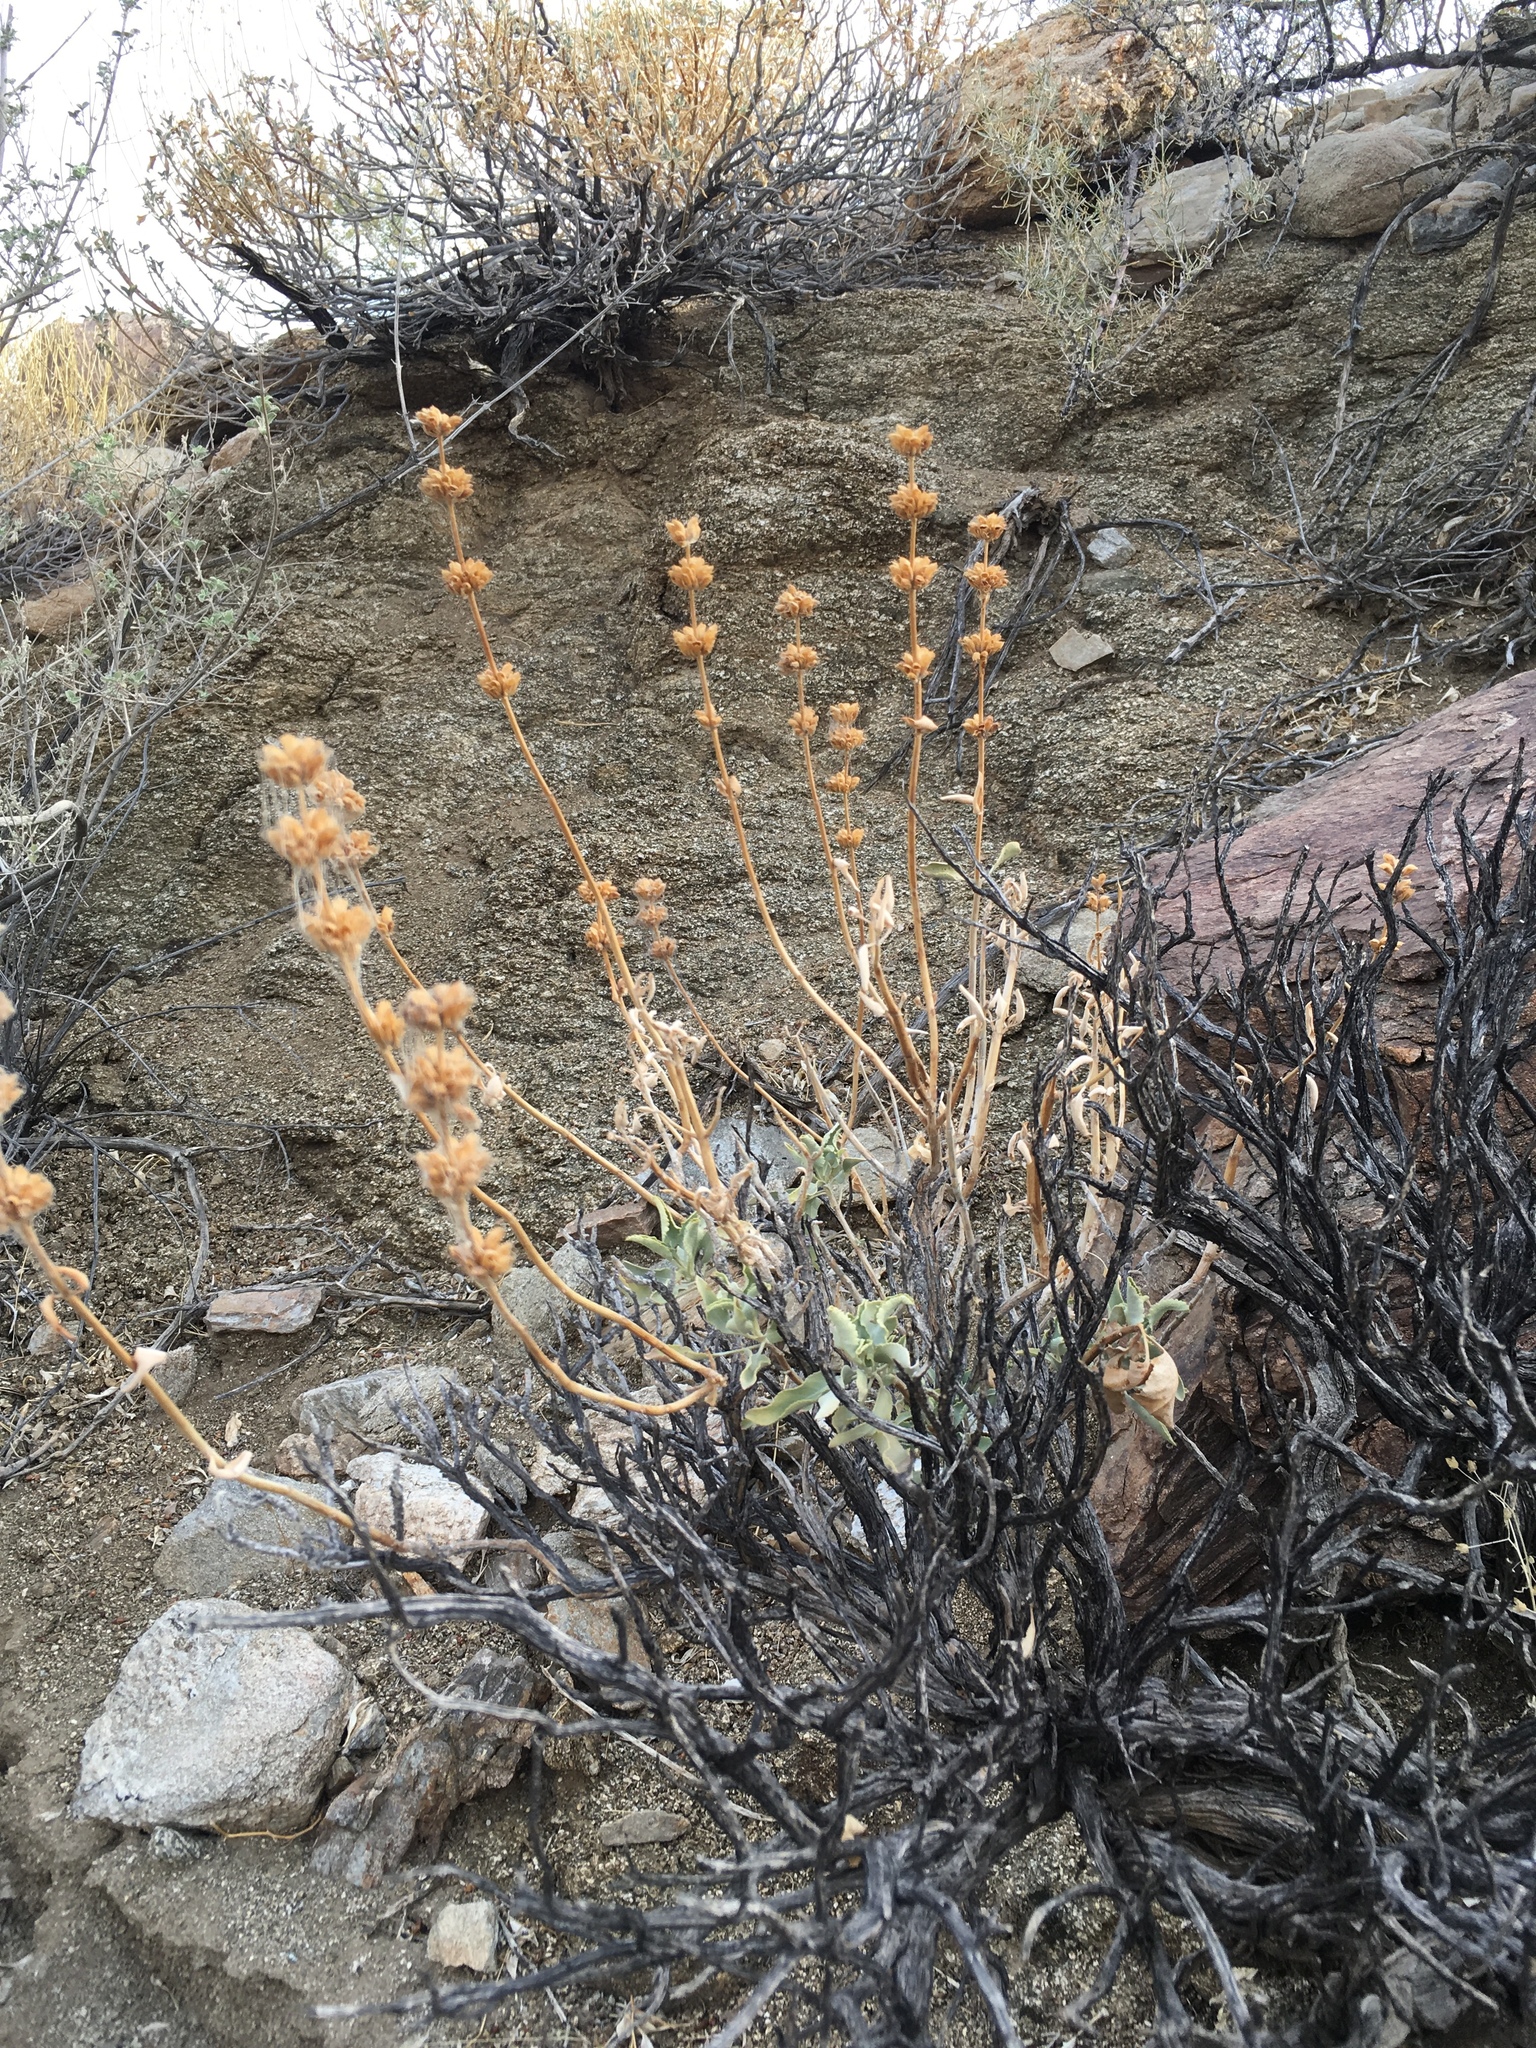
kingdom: Plantae
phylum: Tracheophyta
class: Magnoliopsida
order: Lamiales
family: Lamiaceae
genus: Salvia
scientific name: Salvia vaseyi
